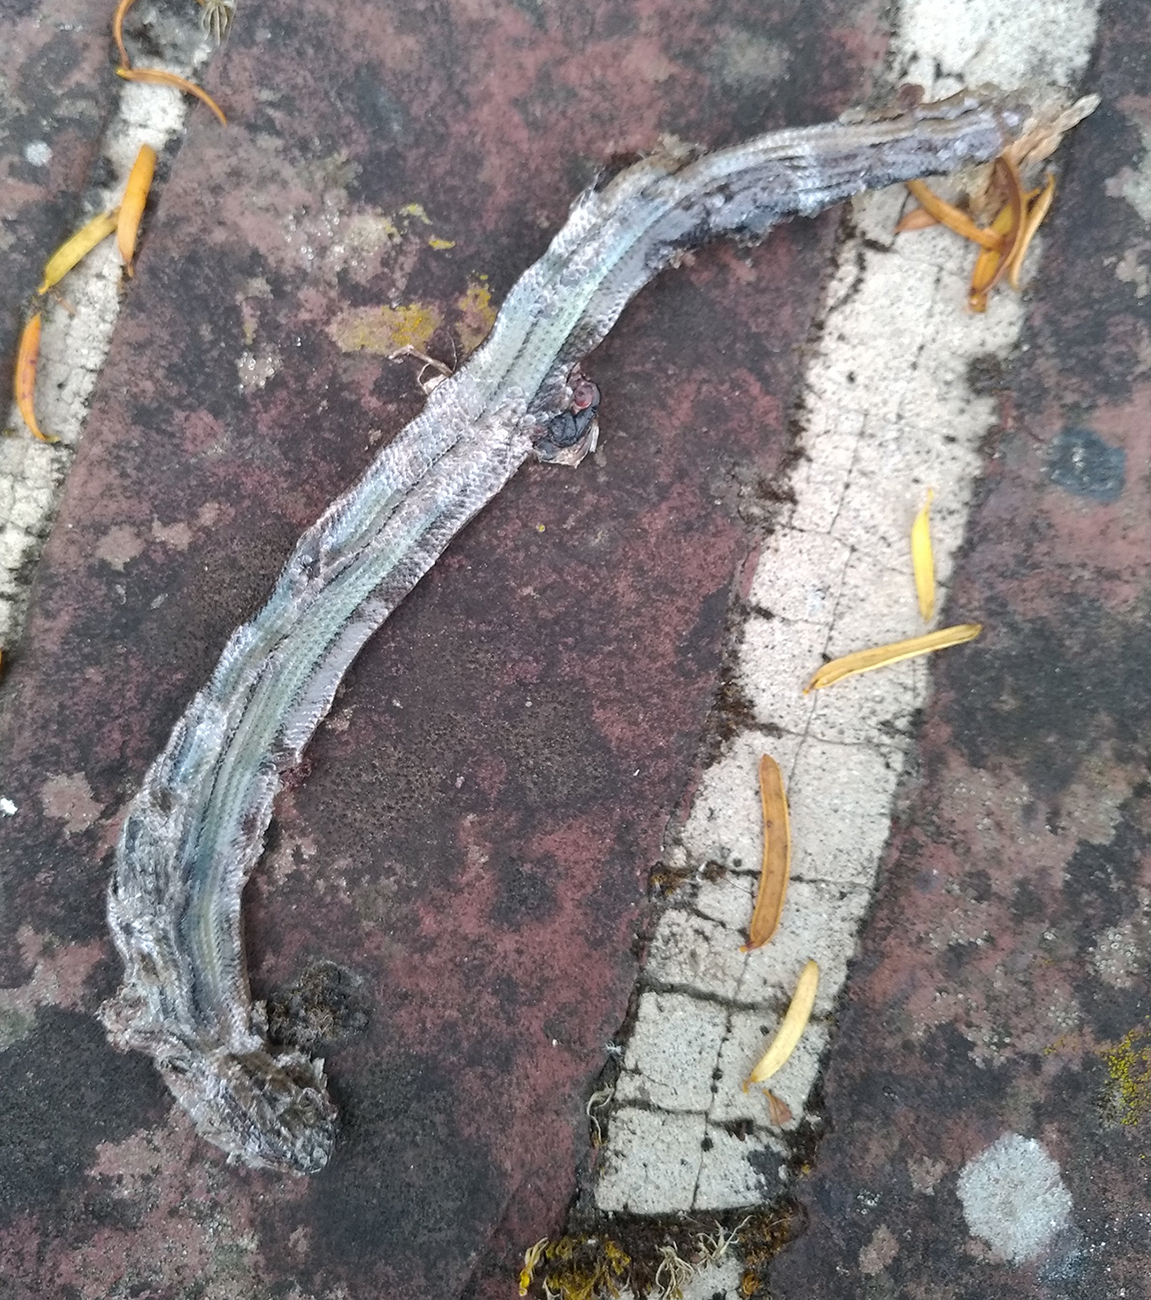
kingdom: Animalia
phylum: Chordata
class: Squamata
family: Anguidae
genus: Anguis
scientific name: Anguis fragilis
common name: Slow worm
